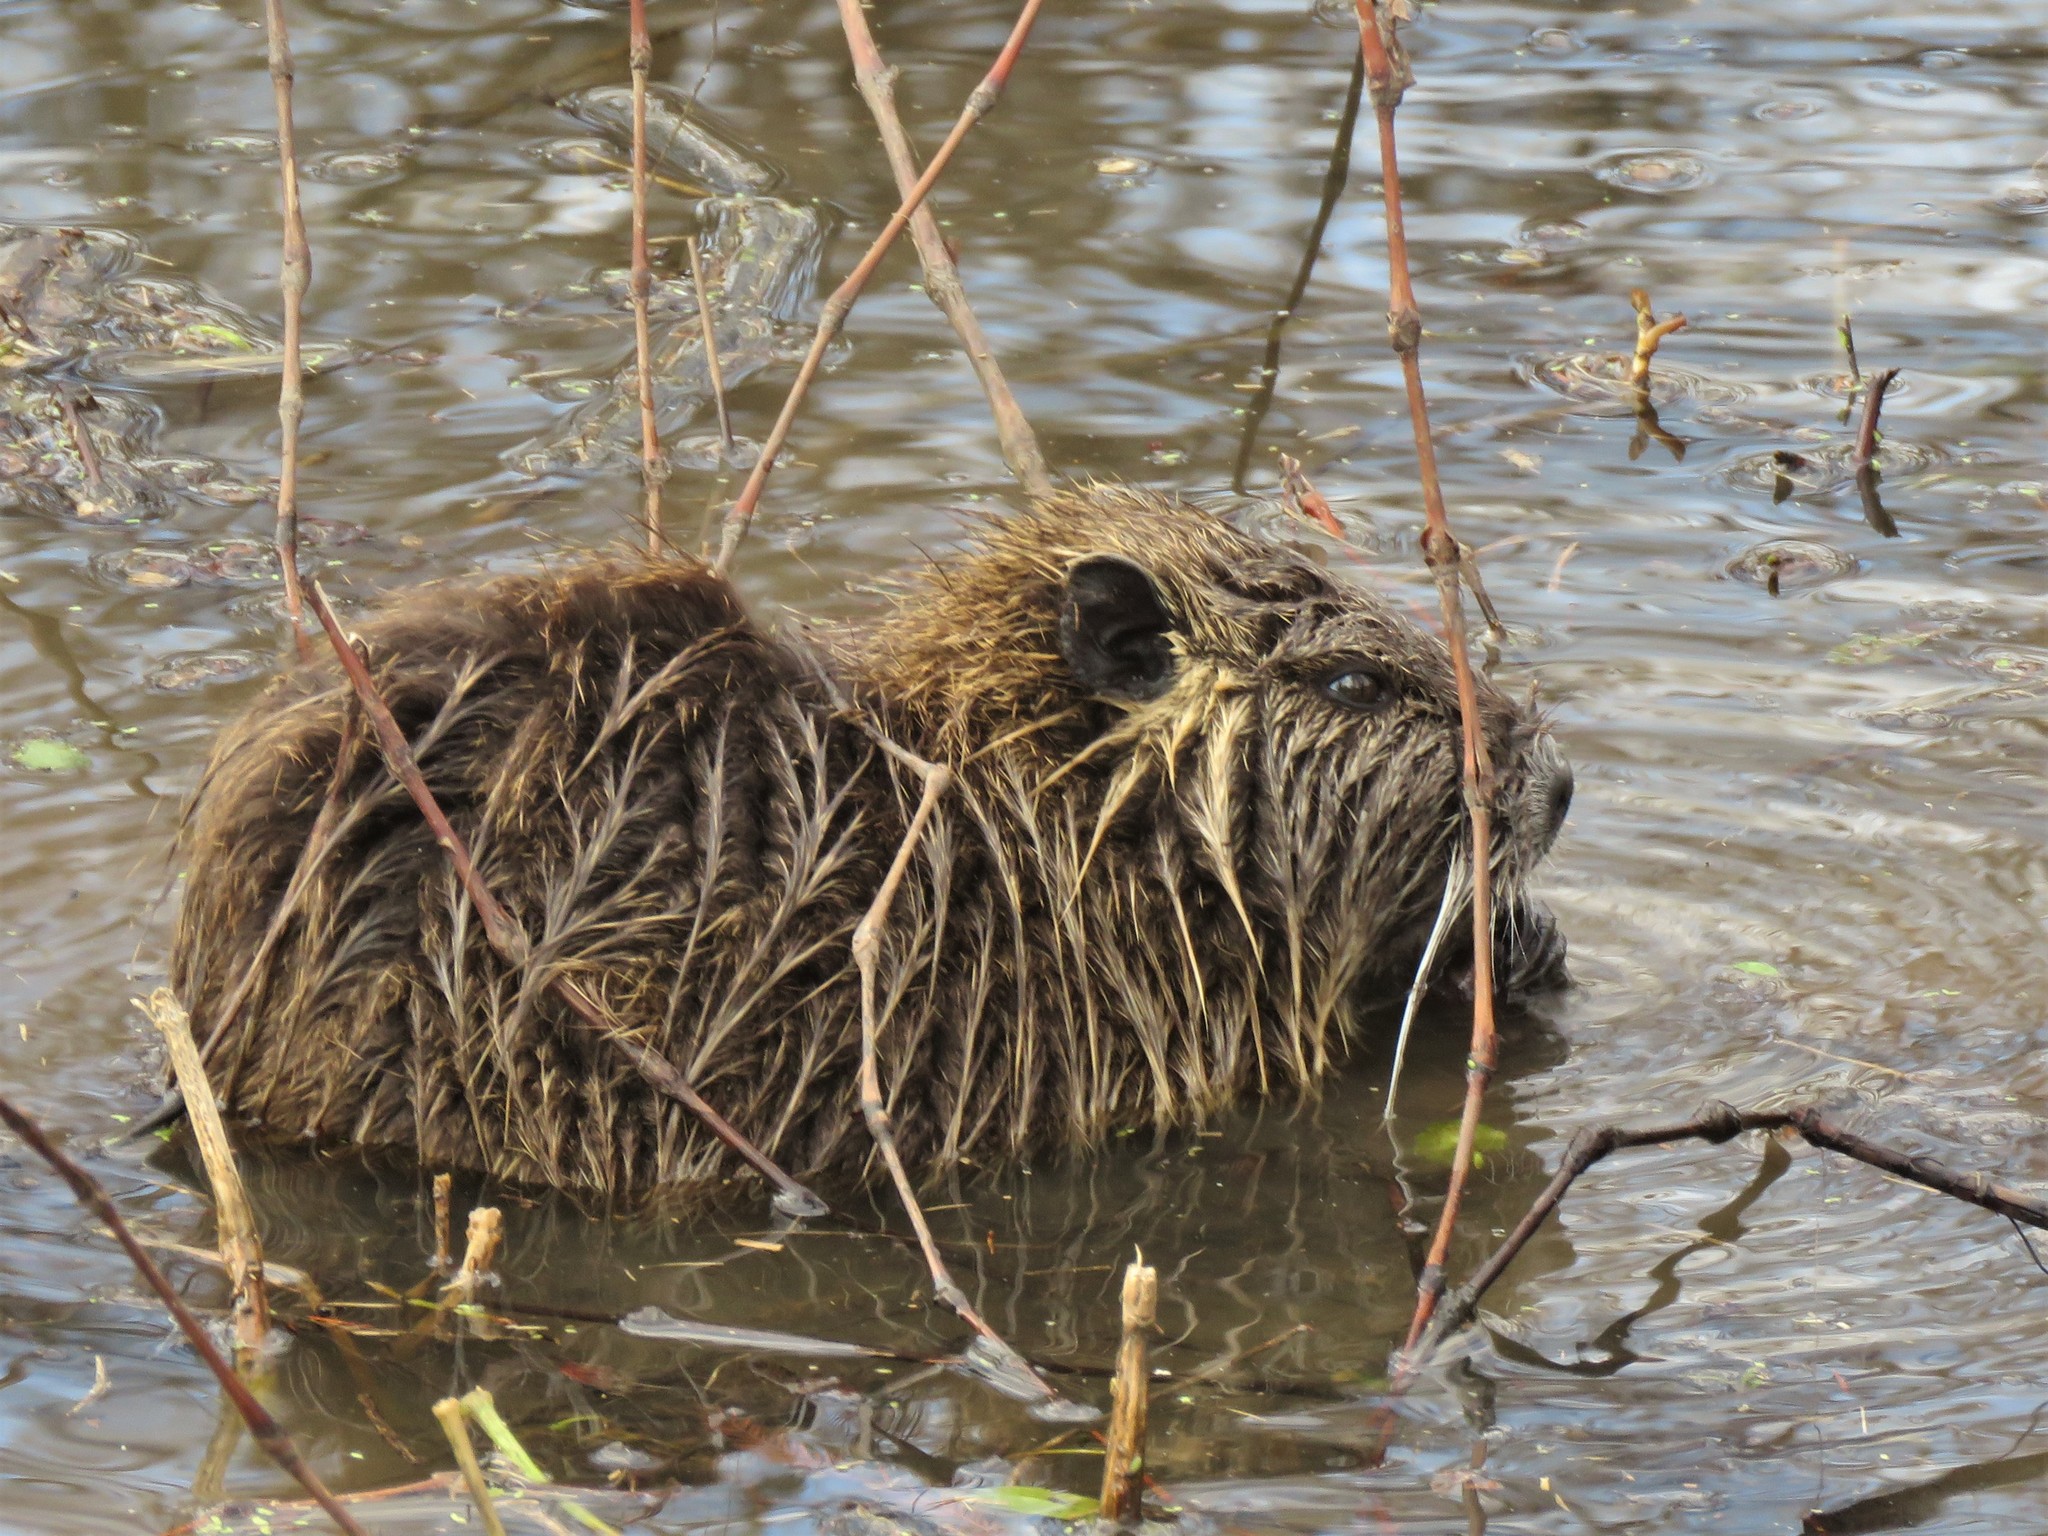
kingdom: Animalia
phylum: Chordata
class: Mammalia
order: Rodentia
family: Myocastoridae
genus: Myocastor
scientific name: Myocastor coypus
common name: Coypu
